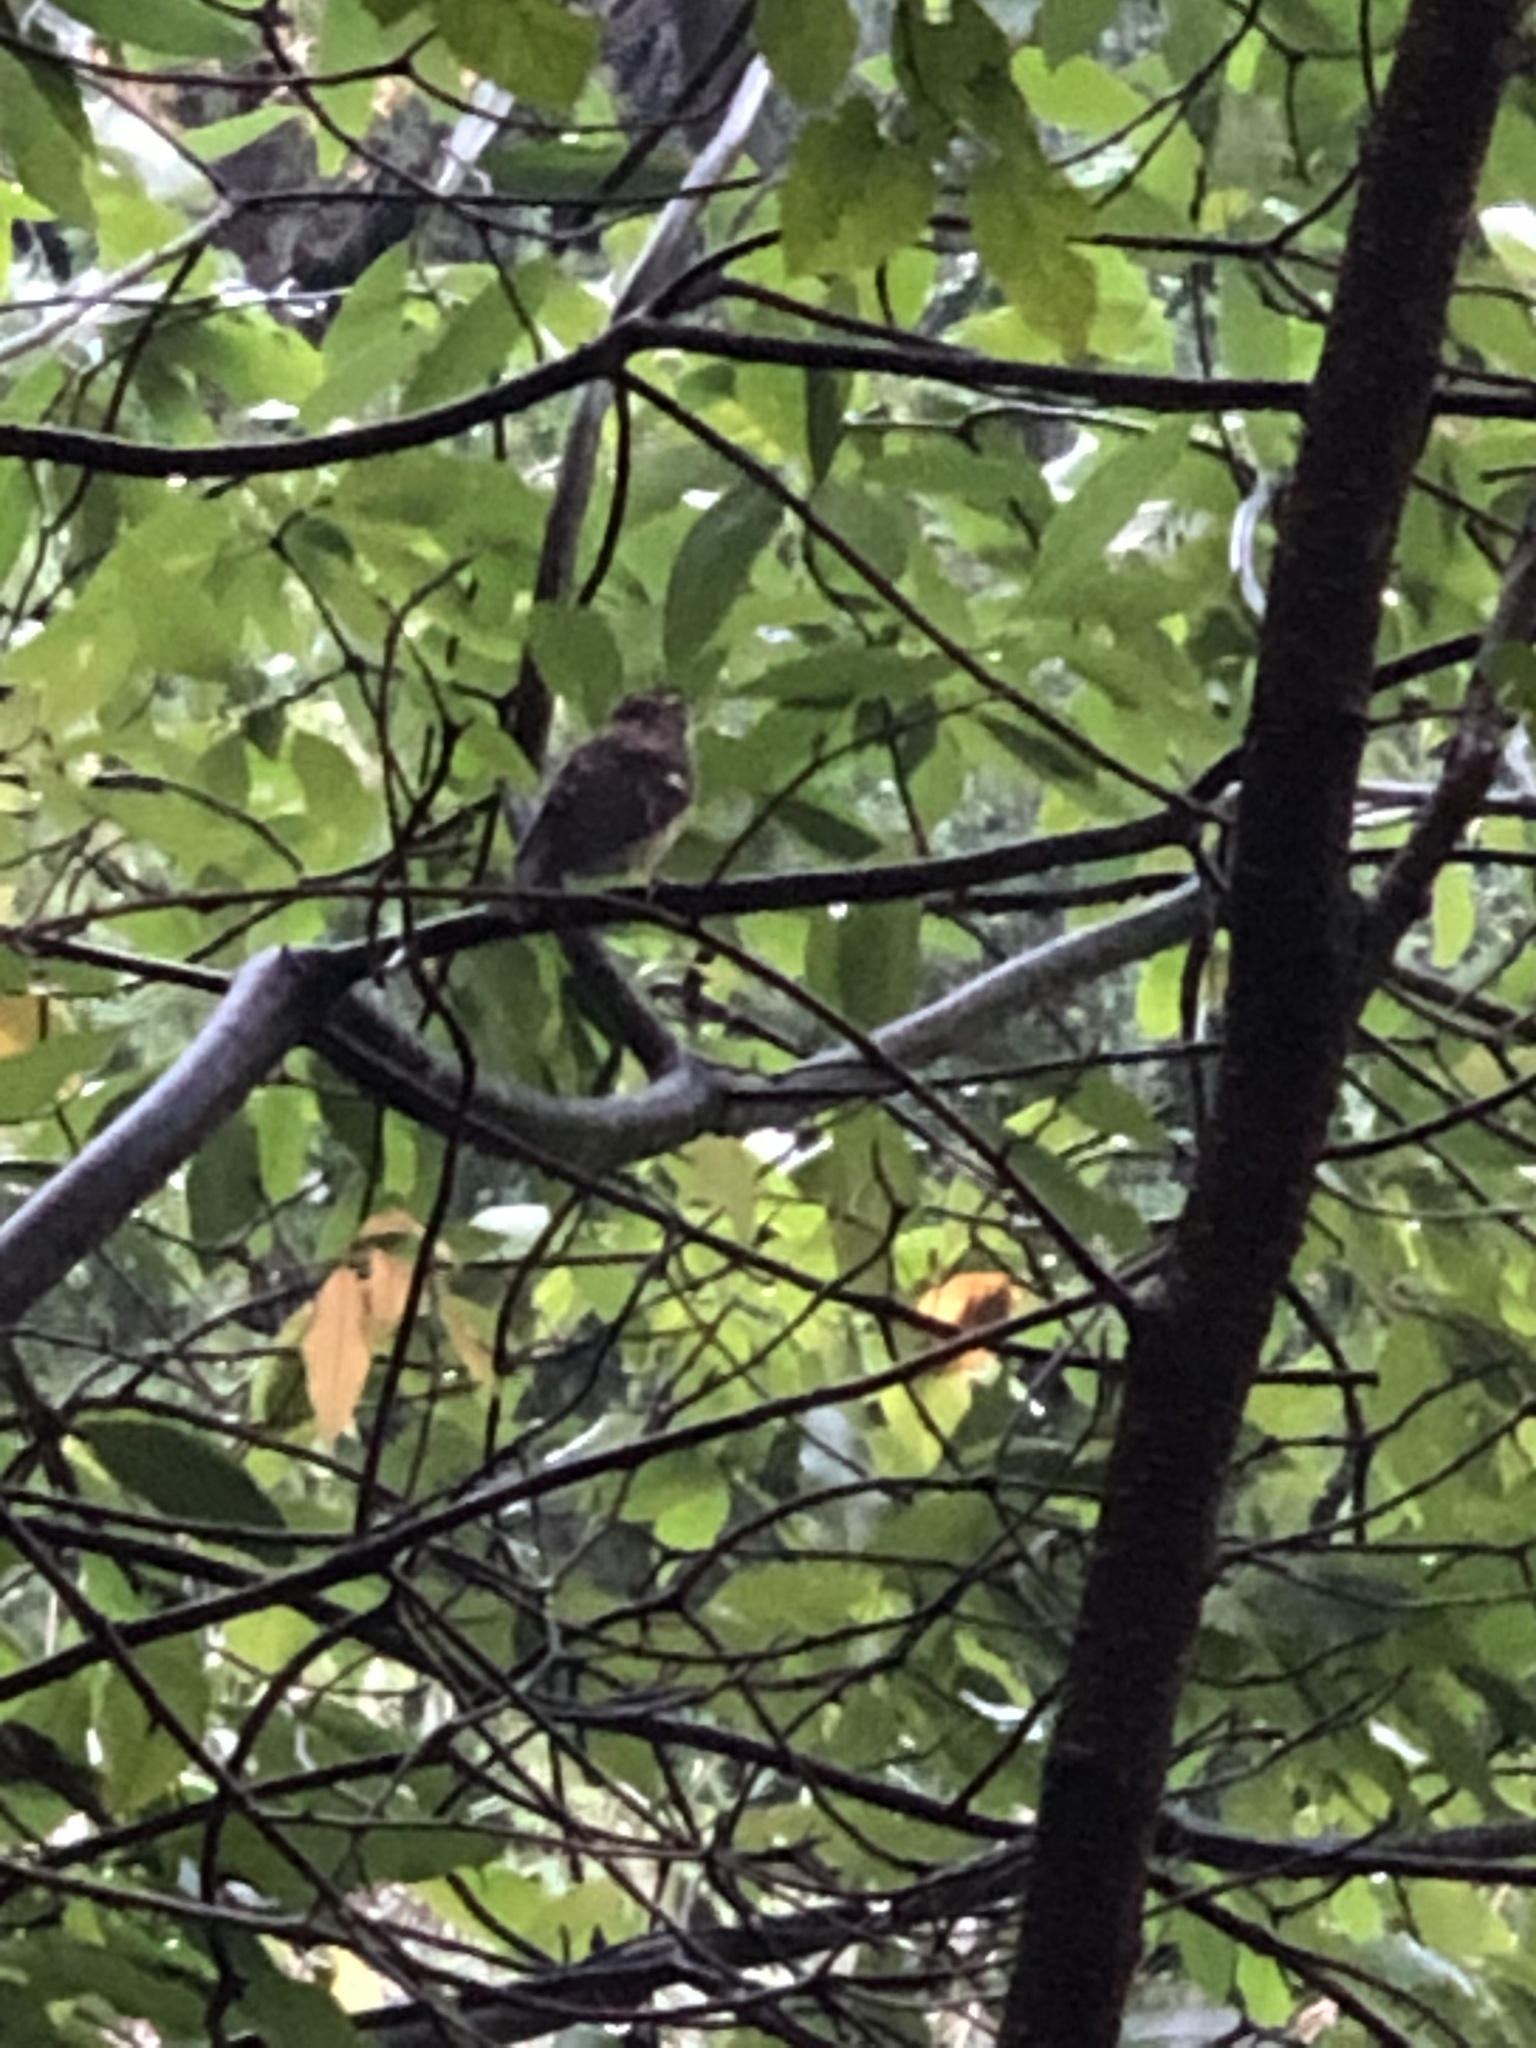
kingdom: Animalia
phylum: Chordata
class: Aves
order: Passeriformes
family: Cardinalidae
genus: Pheucticus
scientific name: Pheucticus ludovicianus
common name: Rose-breasted grosbeak
